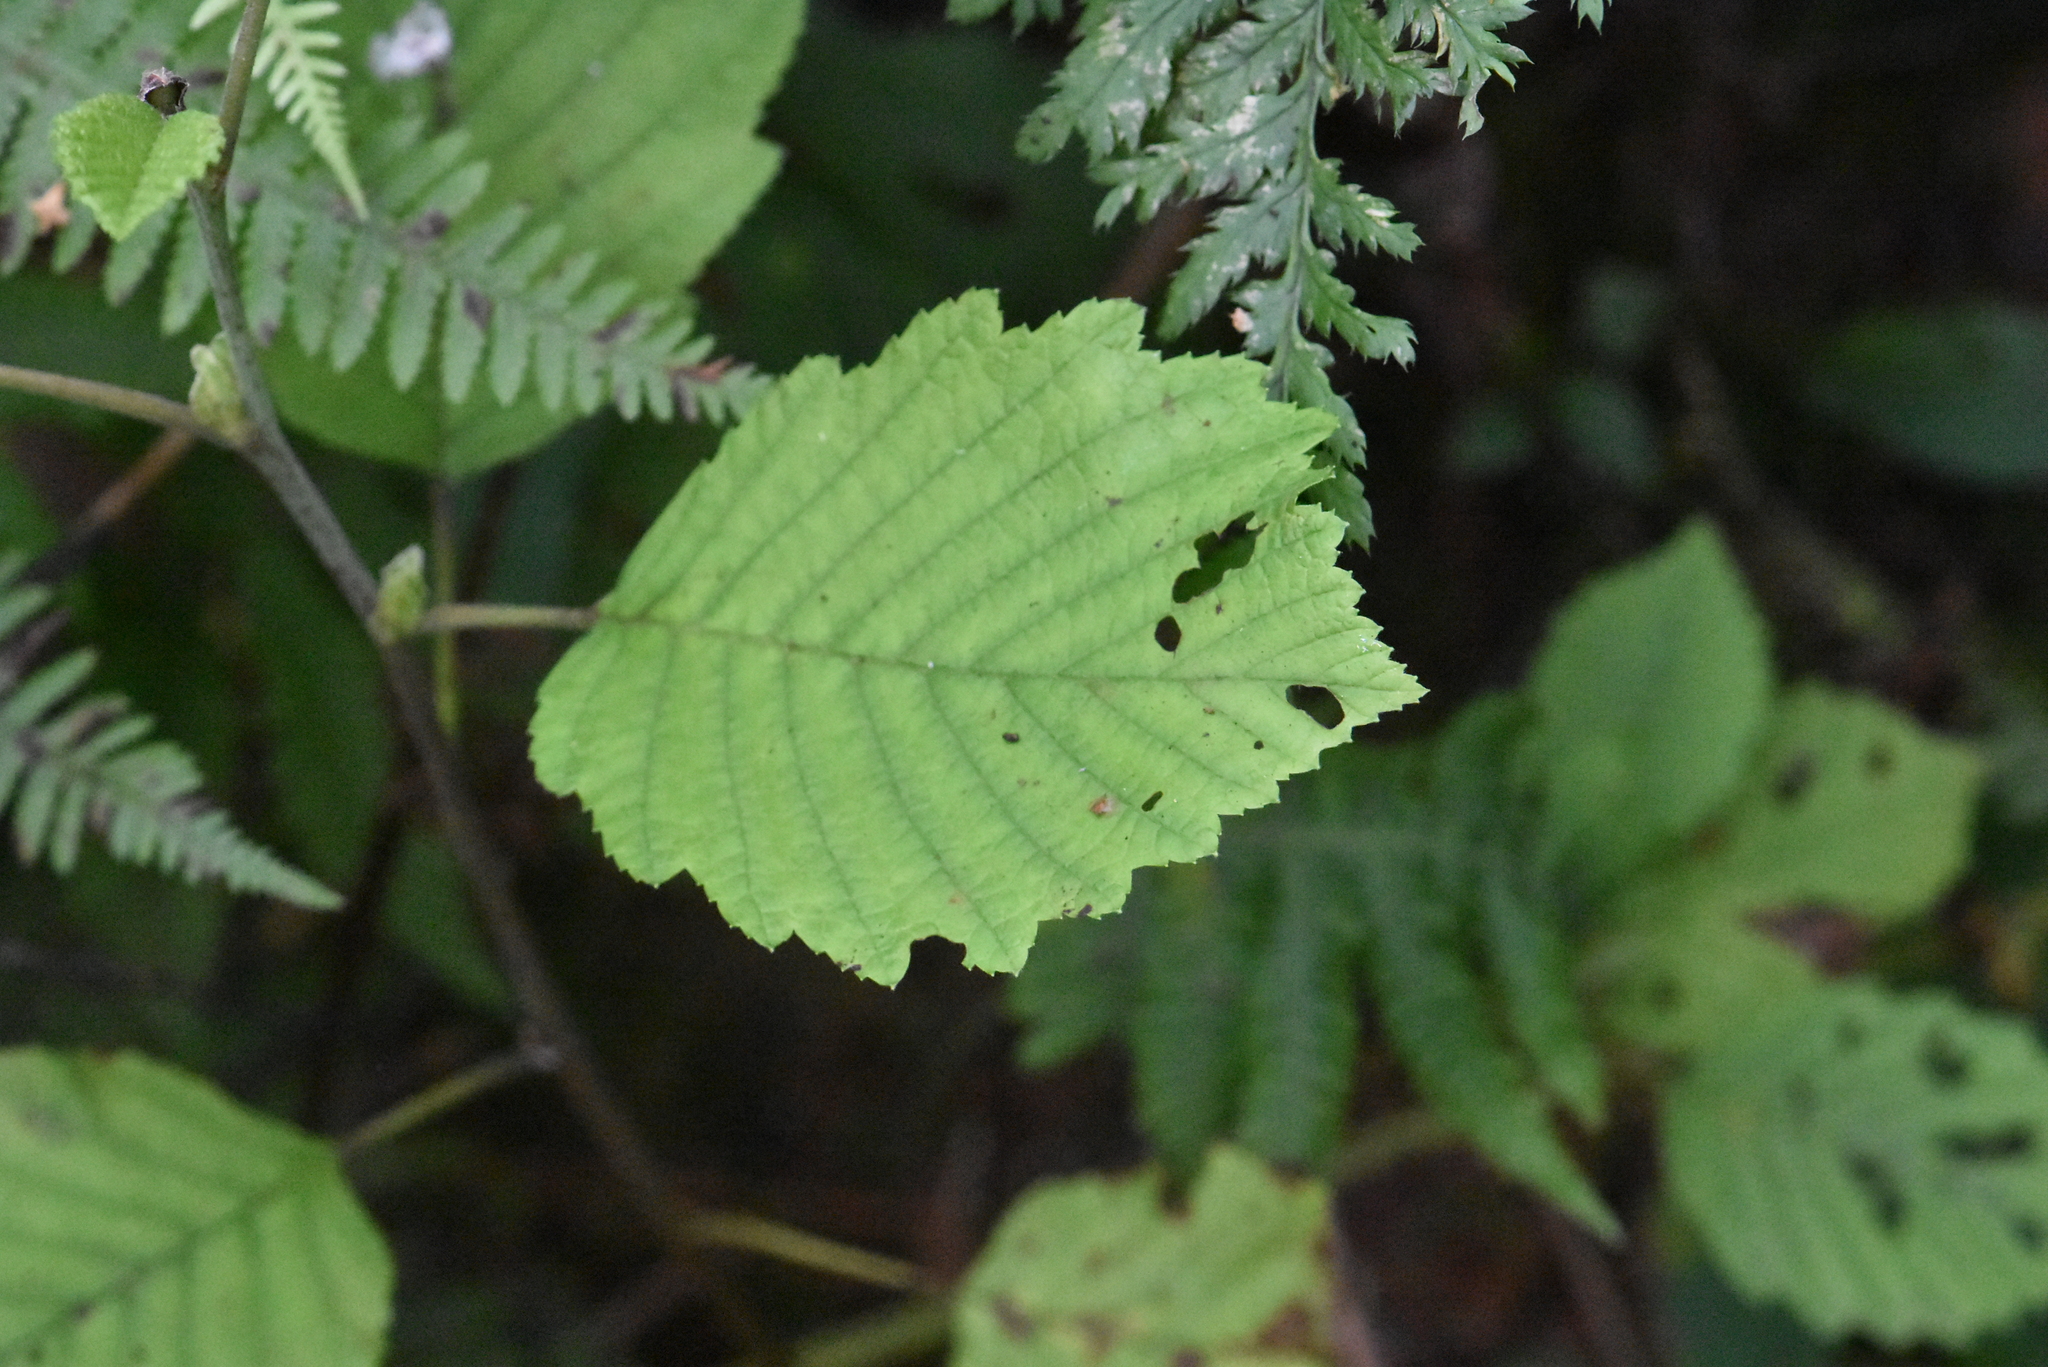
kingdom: Plantae
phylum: Tracheophyta
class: Magnoliopsida
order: Fagales
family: Betulaceae
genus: Alnus
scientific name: Alnus incana
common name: Grey alder
